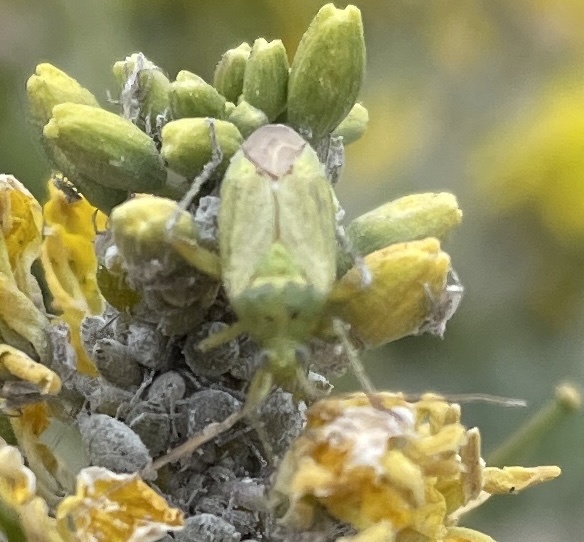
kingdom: Animalia
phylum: Arthropoda
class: Insecta
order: Hemiptera
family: Miridae
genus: Closterotomus
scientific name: Closterotomus norvegicus
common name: Plant bug
